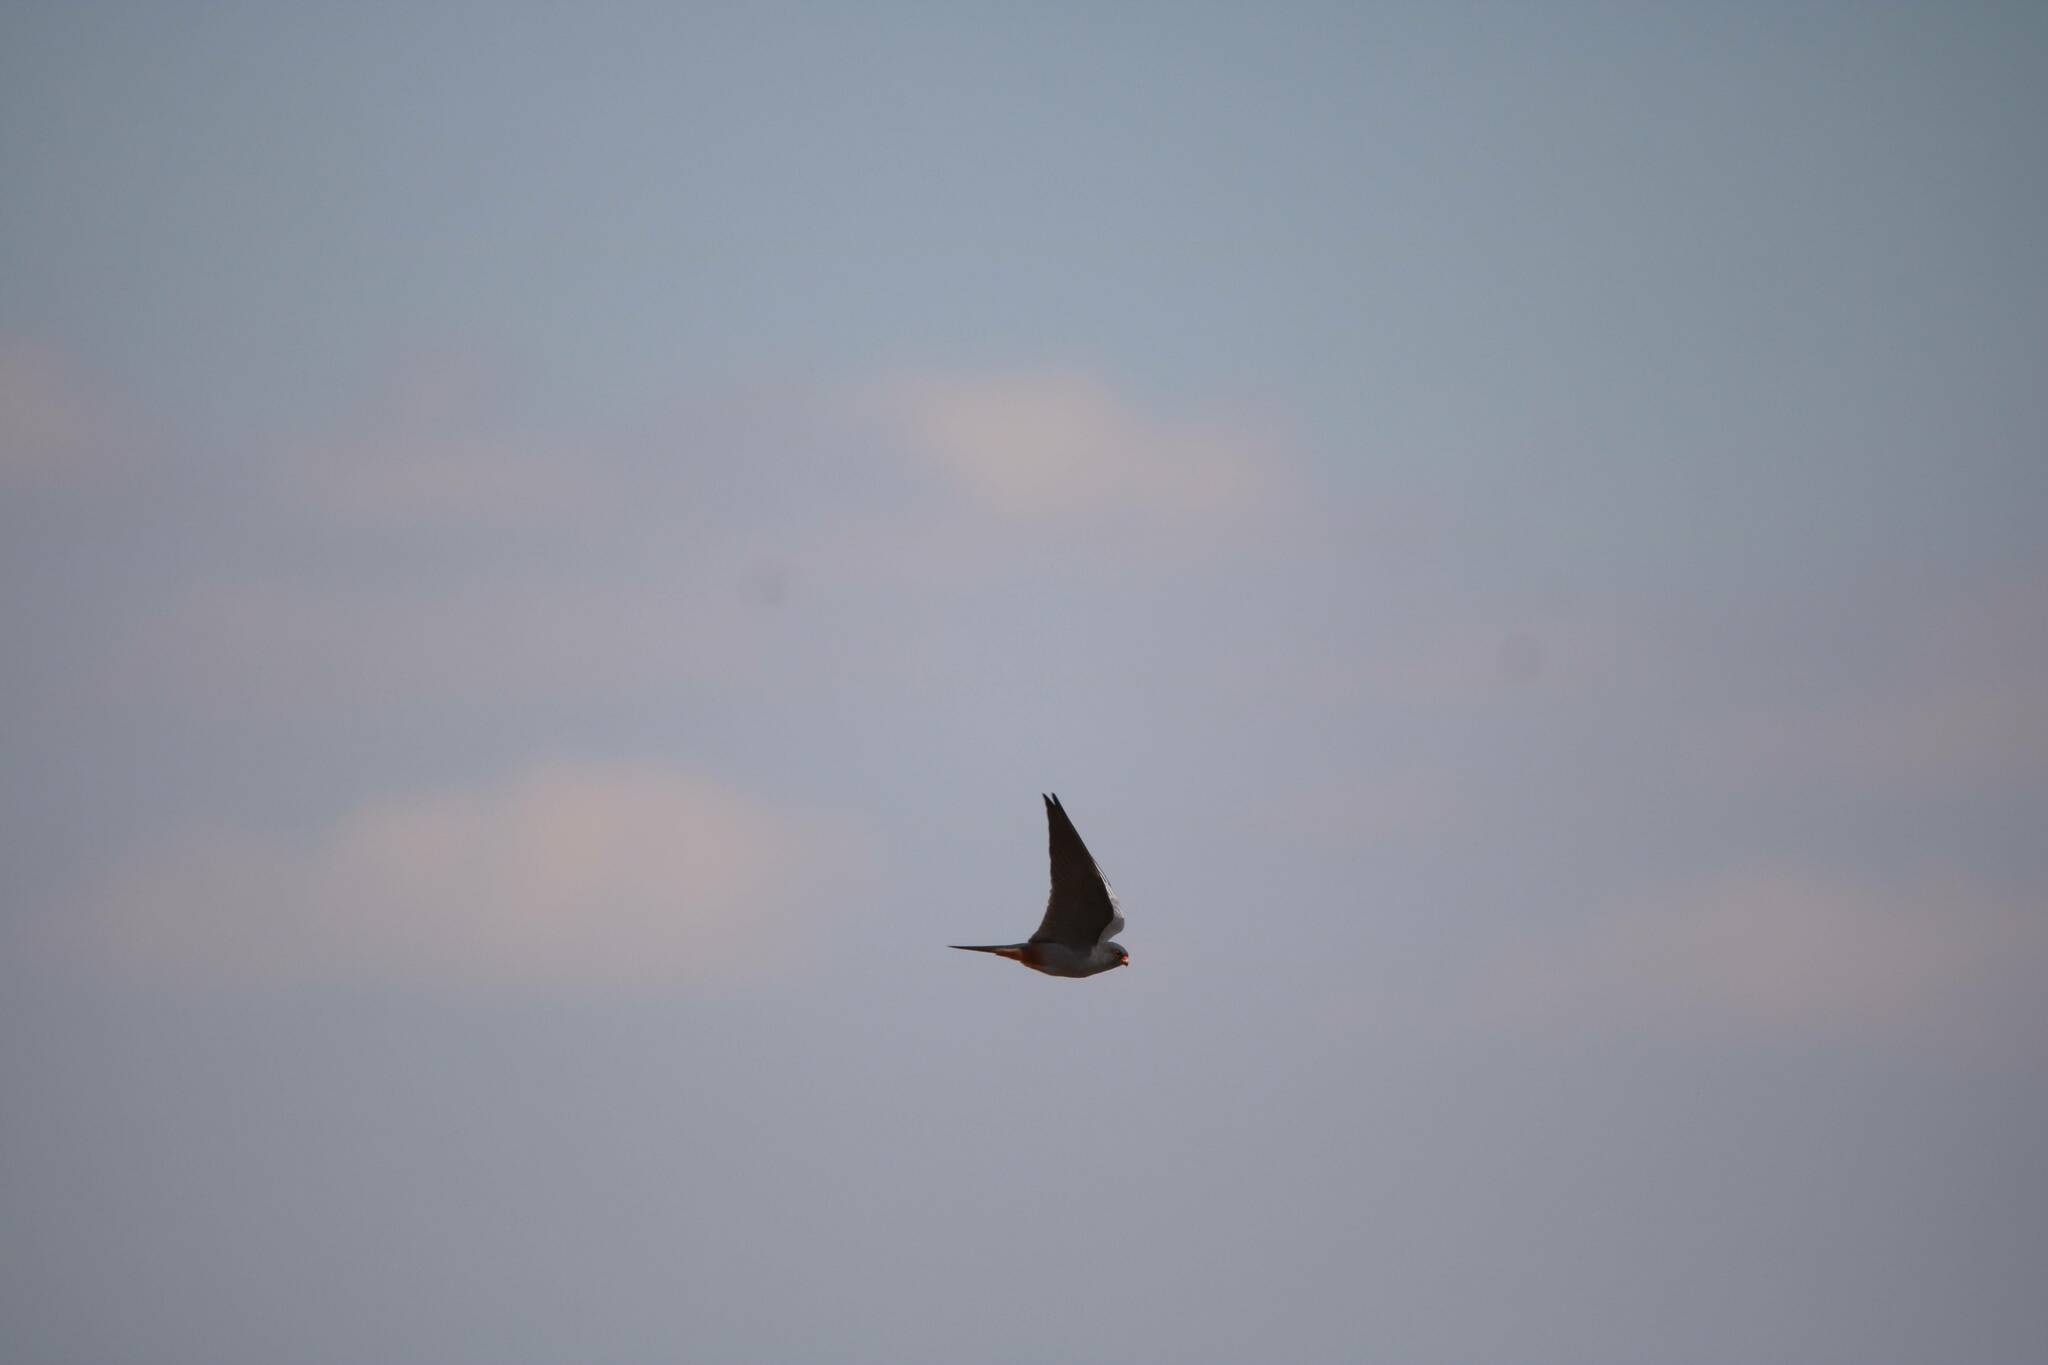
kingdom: Animalia
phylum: Chordata
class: Aves
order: Falconiformes
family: Falconidae
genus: Falco
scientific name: Falco vespertinus
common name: Red-footed falcon
